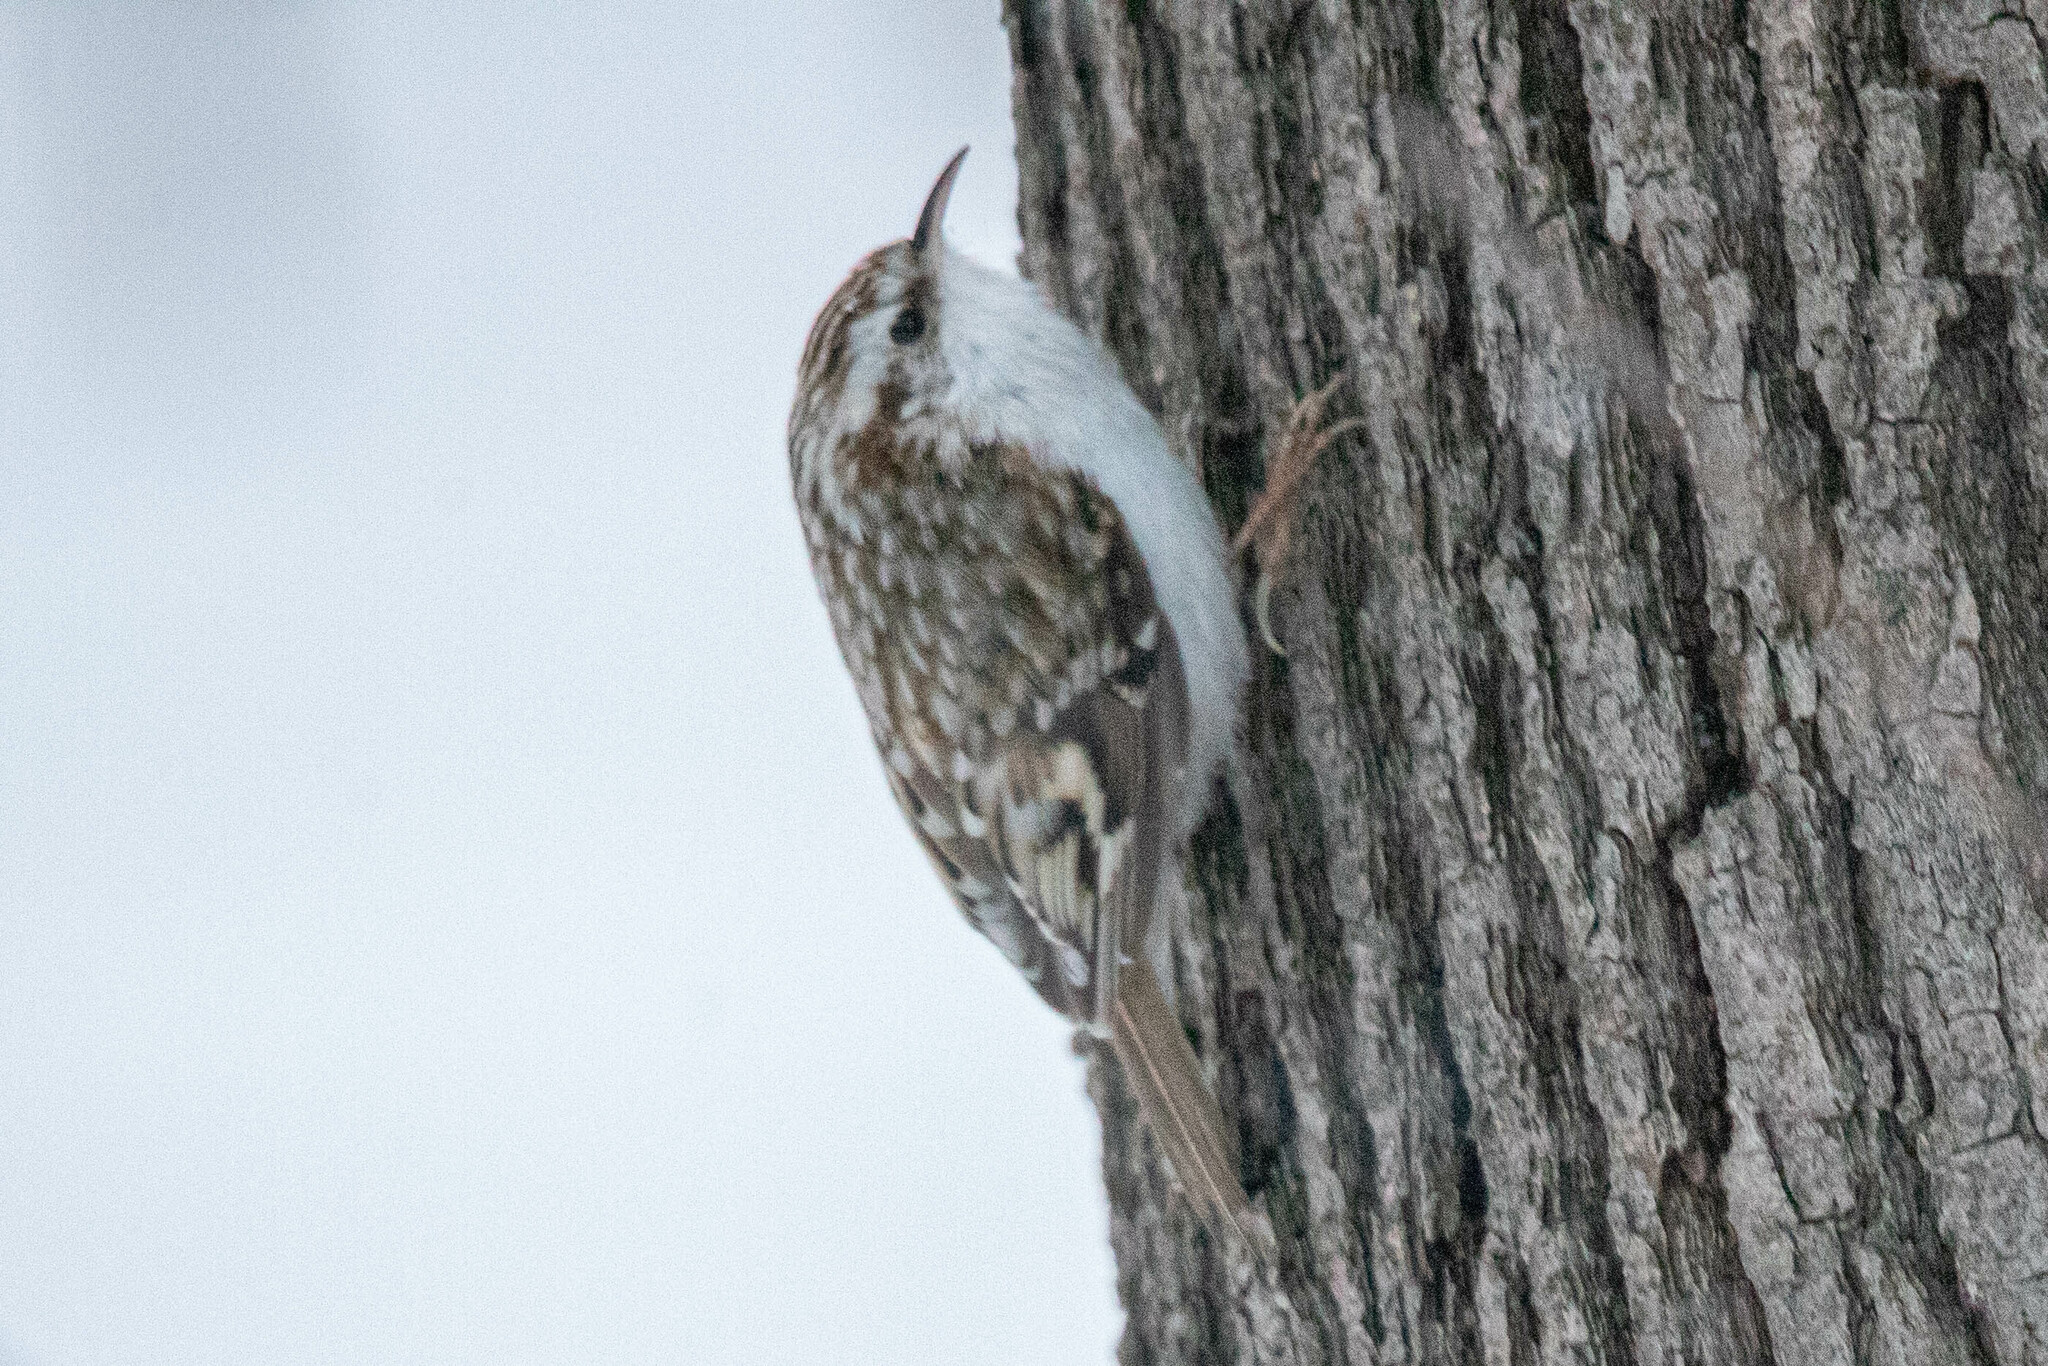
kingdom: Animalia
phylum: Chordata
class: Aves
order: Passeriformes
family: Certhiidae
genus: Certhia
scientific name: Certhia familiaris
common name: Eurasian treecreeper
